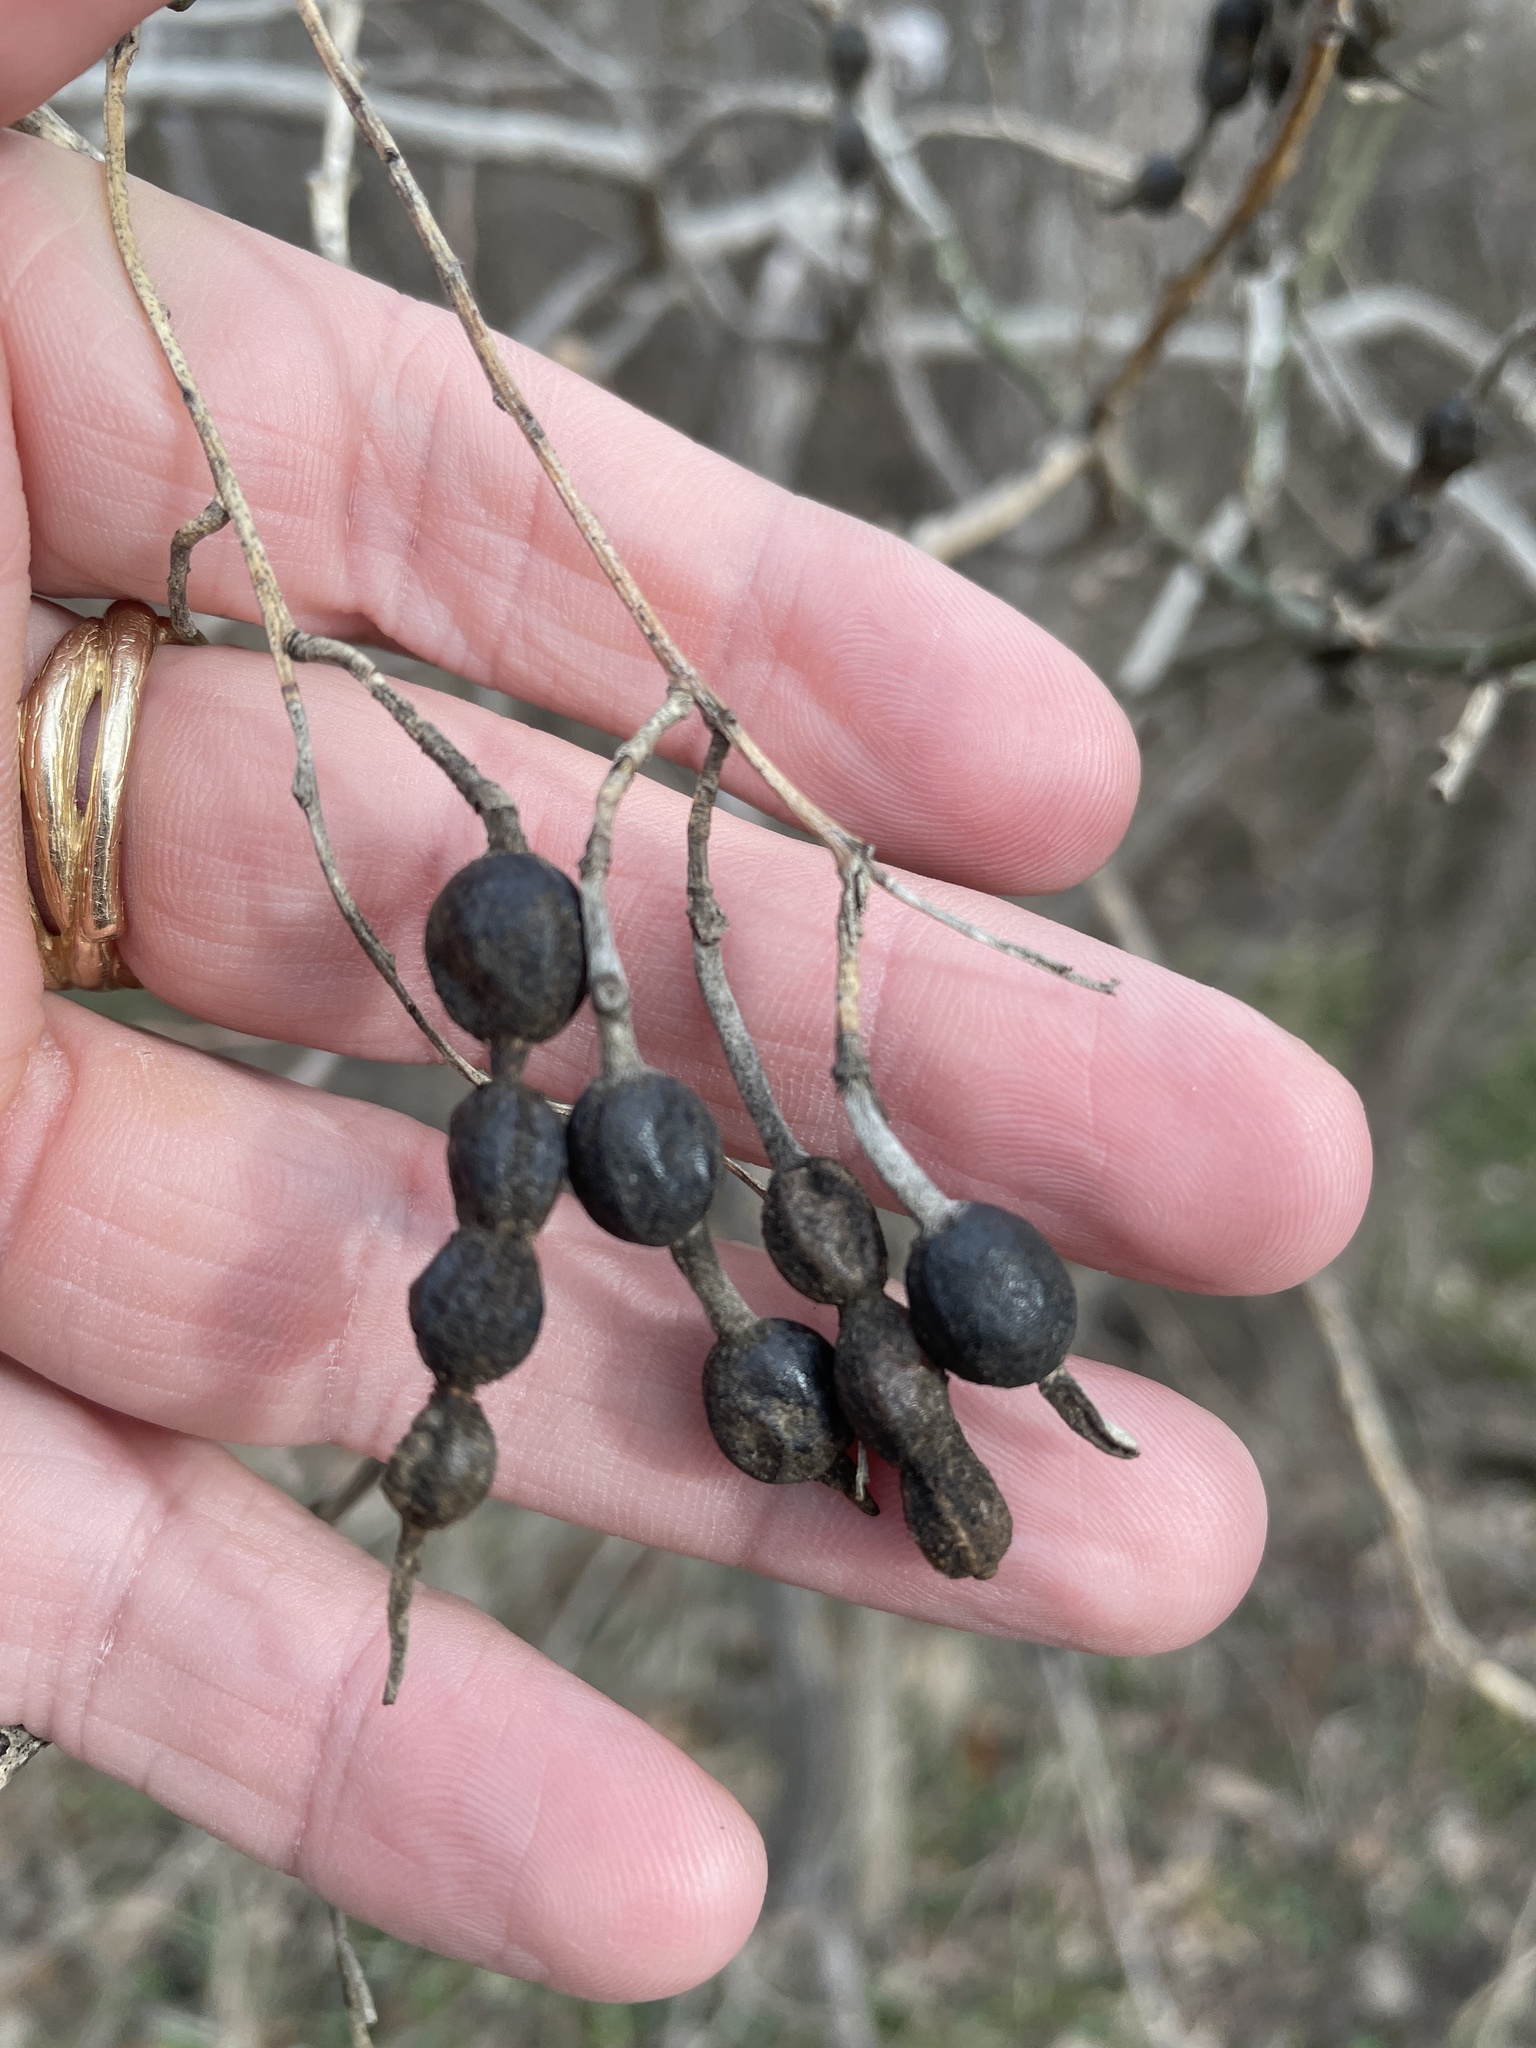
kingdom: Plantae
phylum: Tracheophyta
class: Magnoliopsida
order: Fabales
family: Fabaceae
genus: Styphnolobium
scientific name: Styphnolobium affine
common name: Texas sophora
